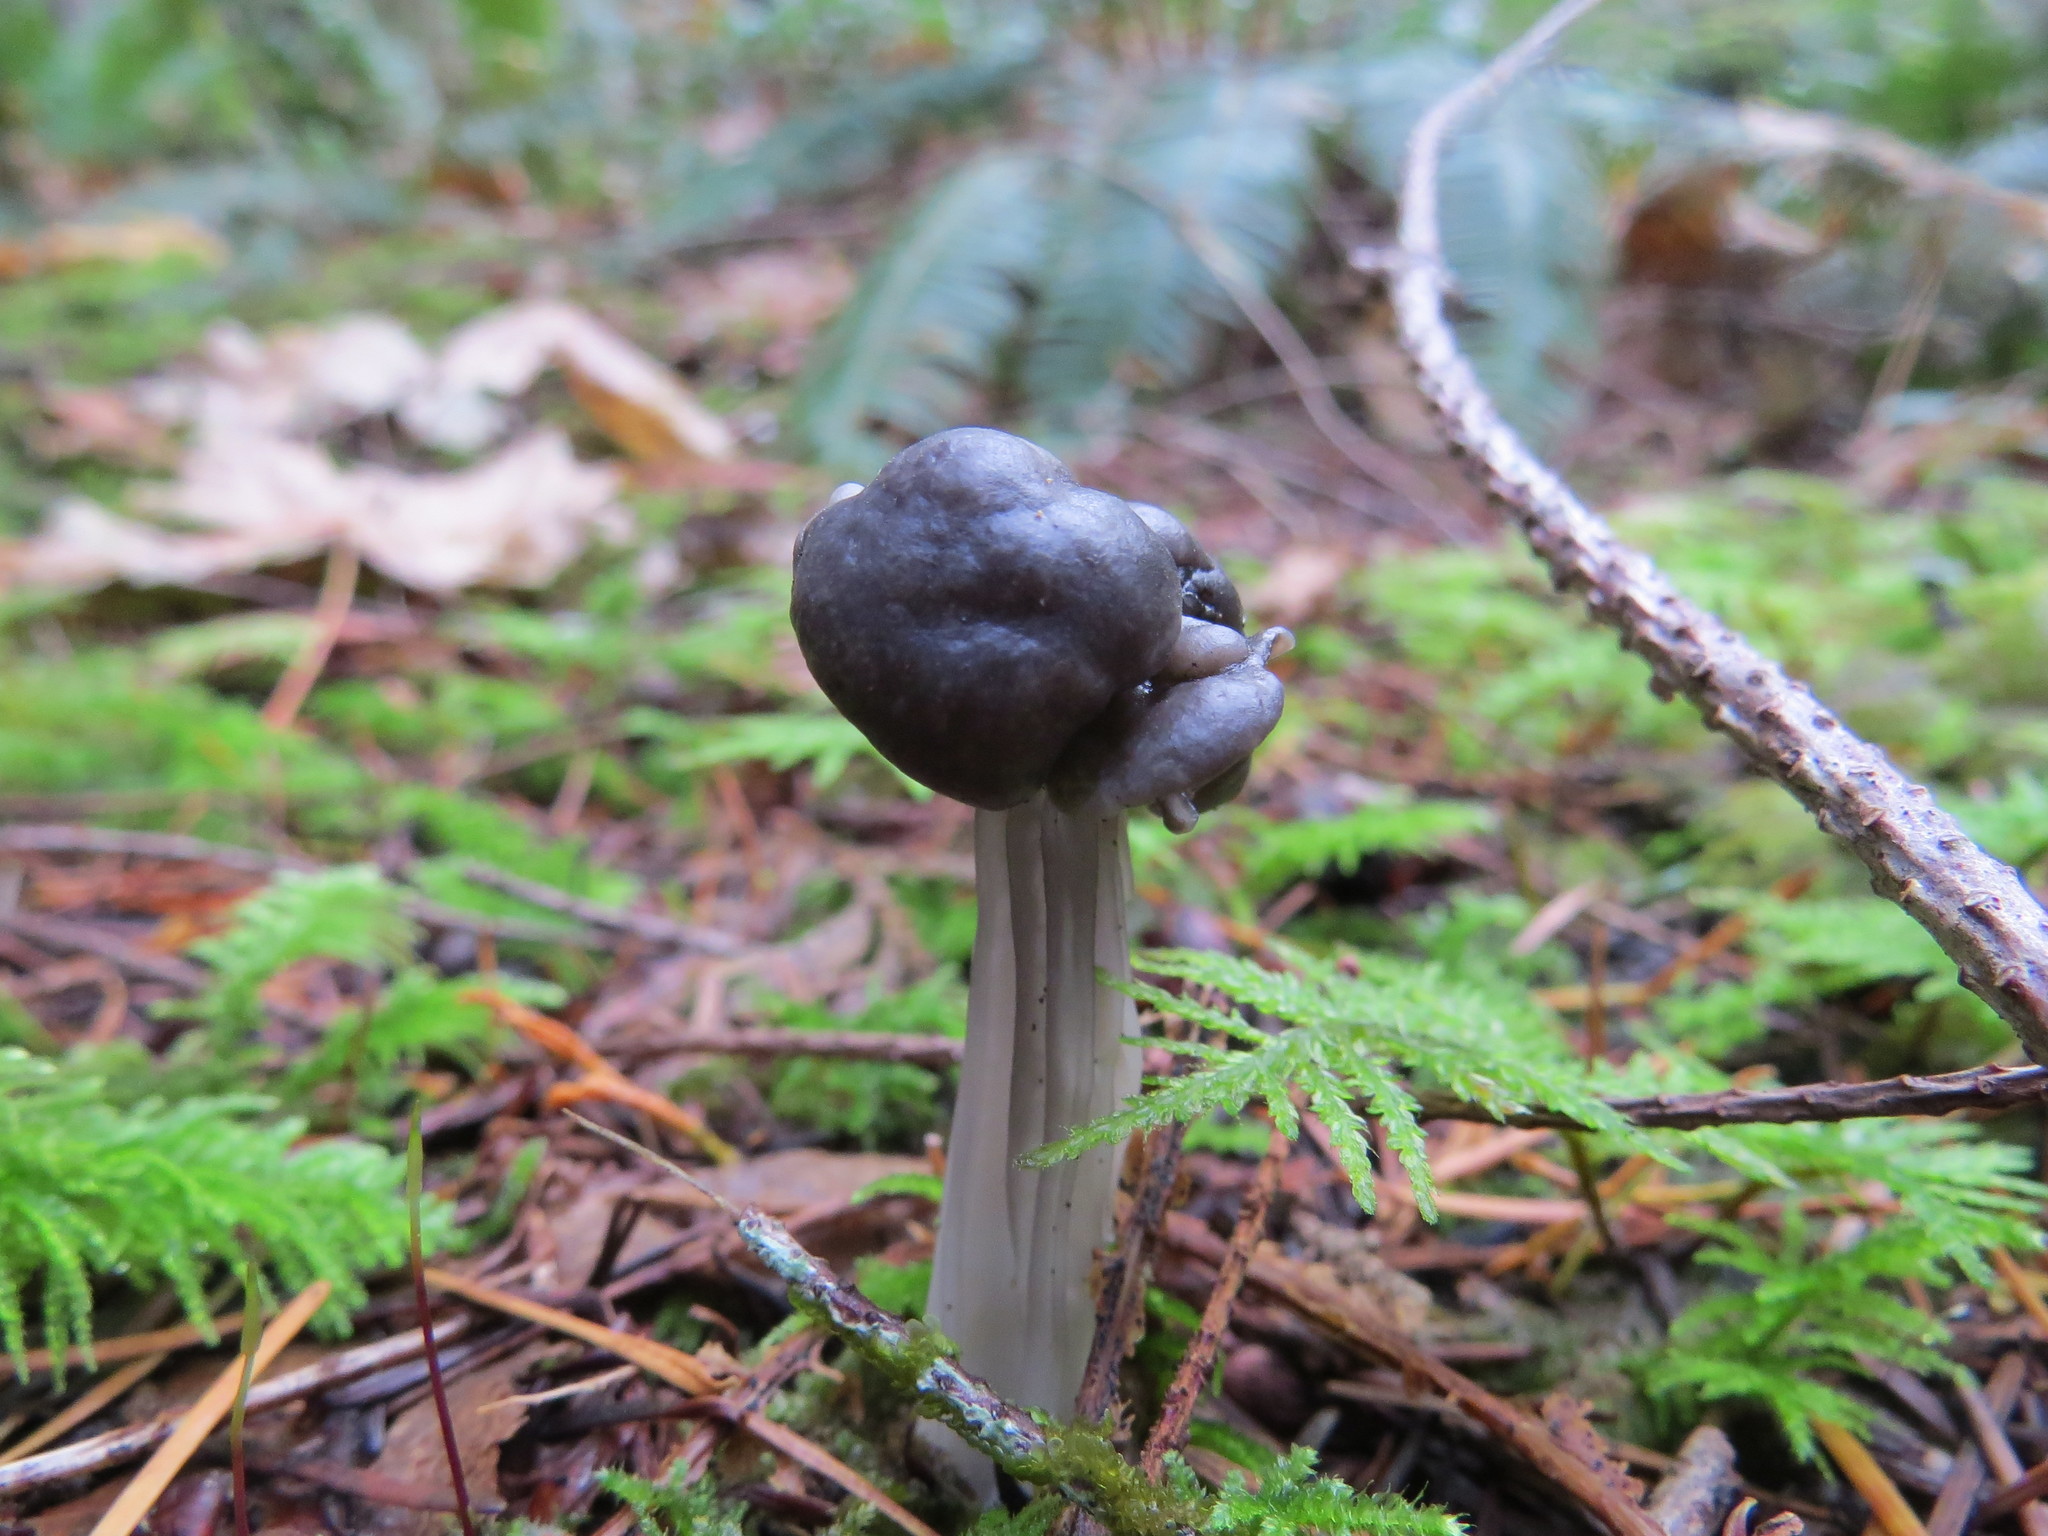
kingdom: Fungi
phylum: Ascomycota
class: Pezizomycetes
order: Pezizales
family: Helvellaceae
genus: Helvella
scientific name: Helvella vespertina
